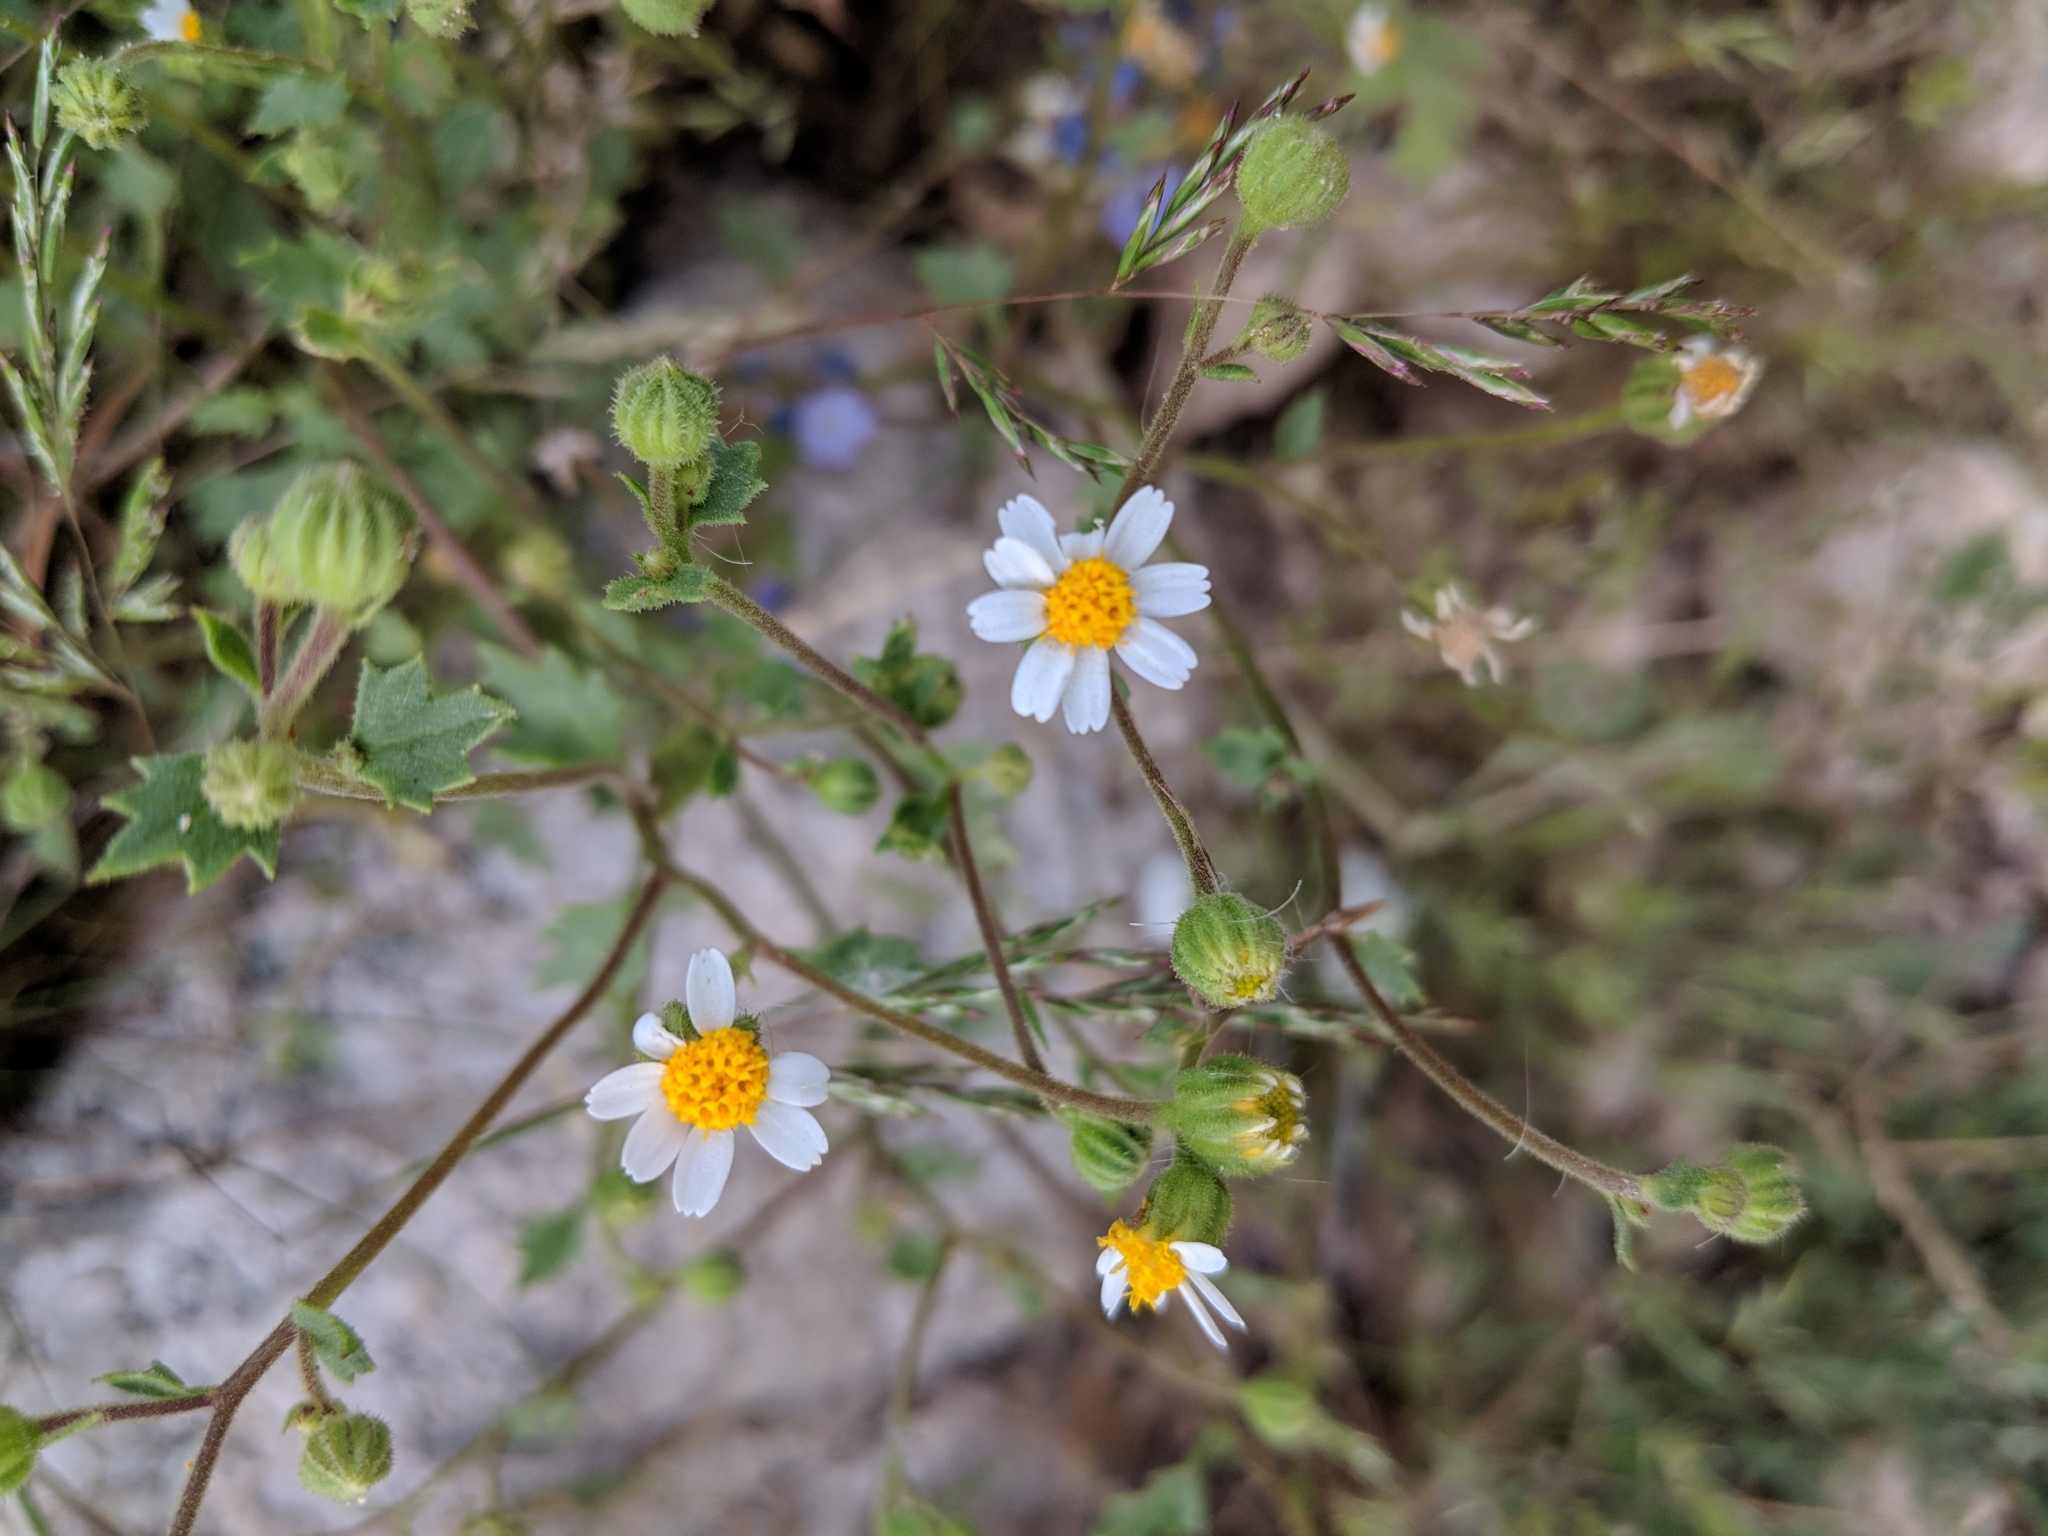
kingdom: Plantae
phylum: Tracheophyta
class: Magnoliopsida
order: Asterales
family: Asteraceae
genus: Laphamia
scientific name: Laphamia emoryi
